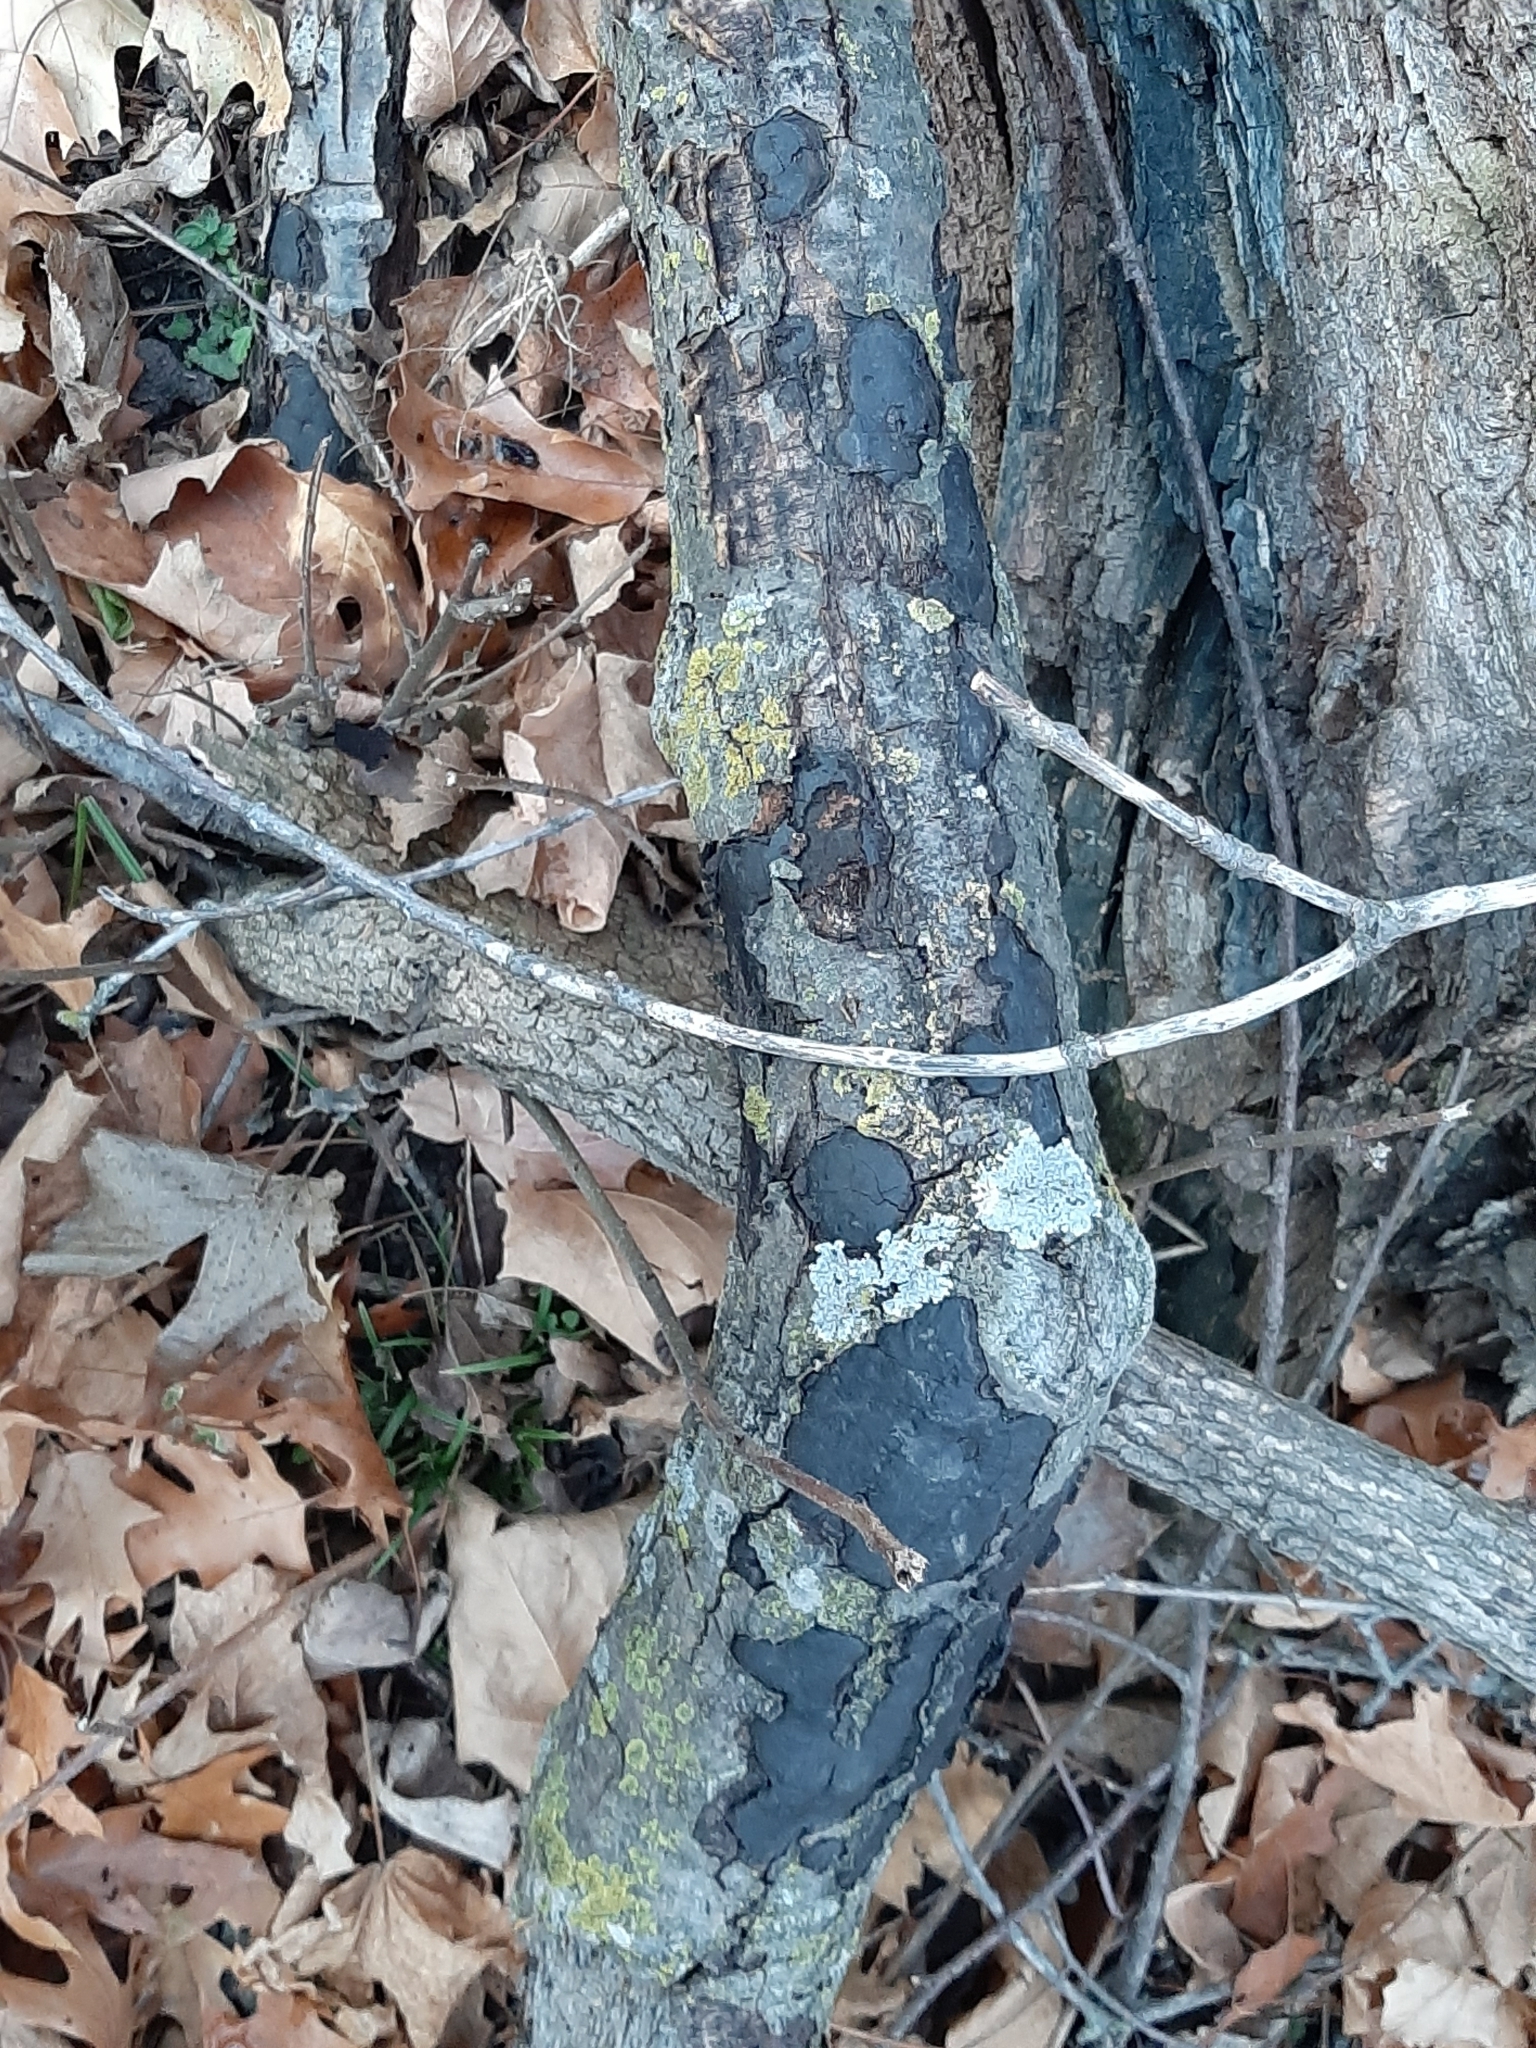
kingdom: Fungi
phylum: Ascomycota
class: Sordariomycetes
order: Xylariales
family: Graphostromataceae
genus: Biscogniauxia
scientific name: Biscogniauxia atropunctata
